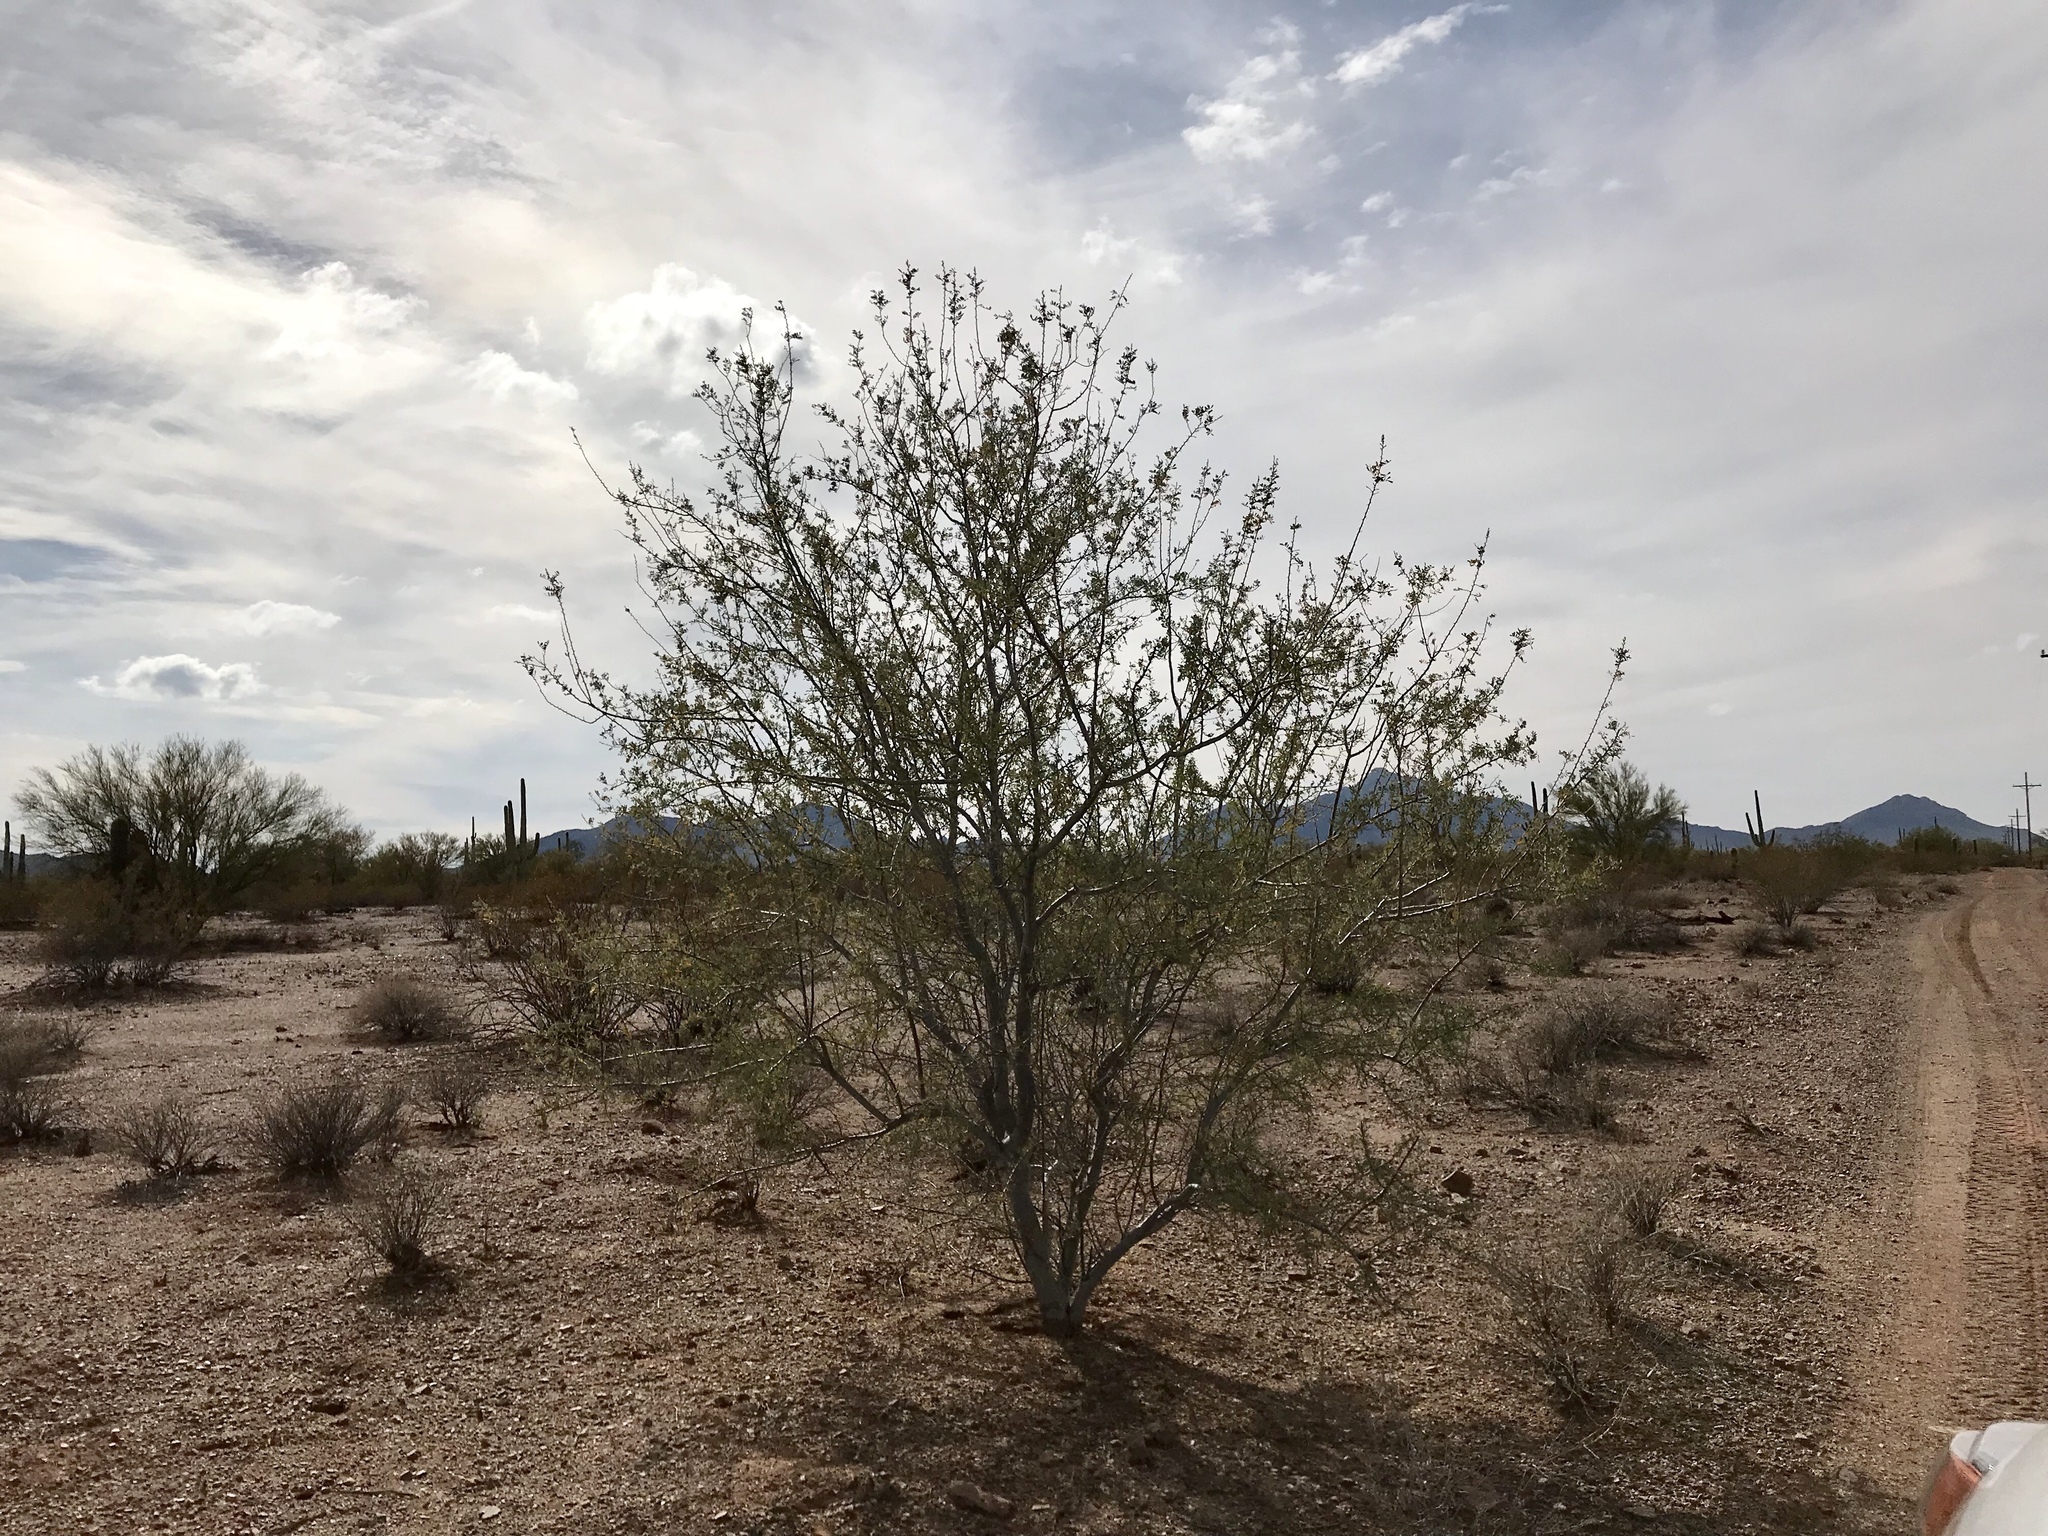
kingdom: Plantae
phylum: Tracheophyta
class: Magnoliopsida
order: Fabales
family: Fabaceae
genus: Olneya
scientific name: Olneya tesota
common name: Desert ironwood
